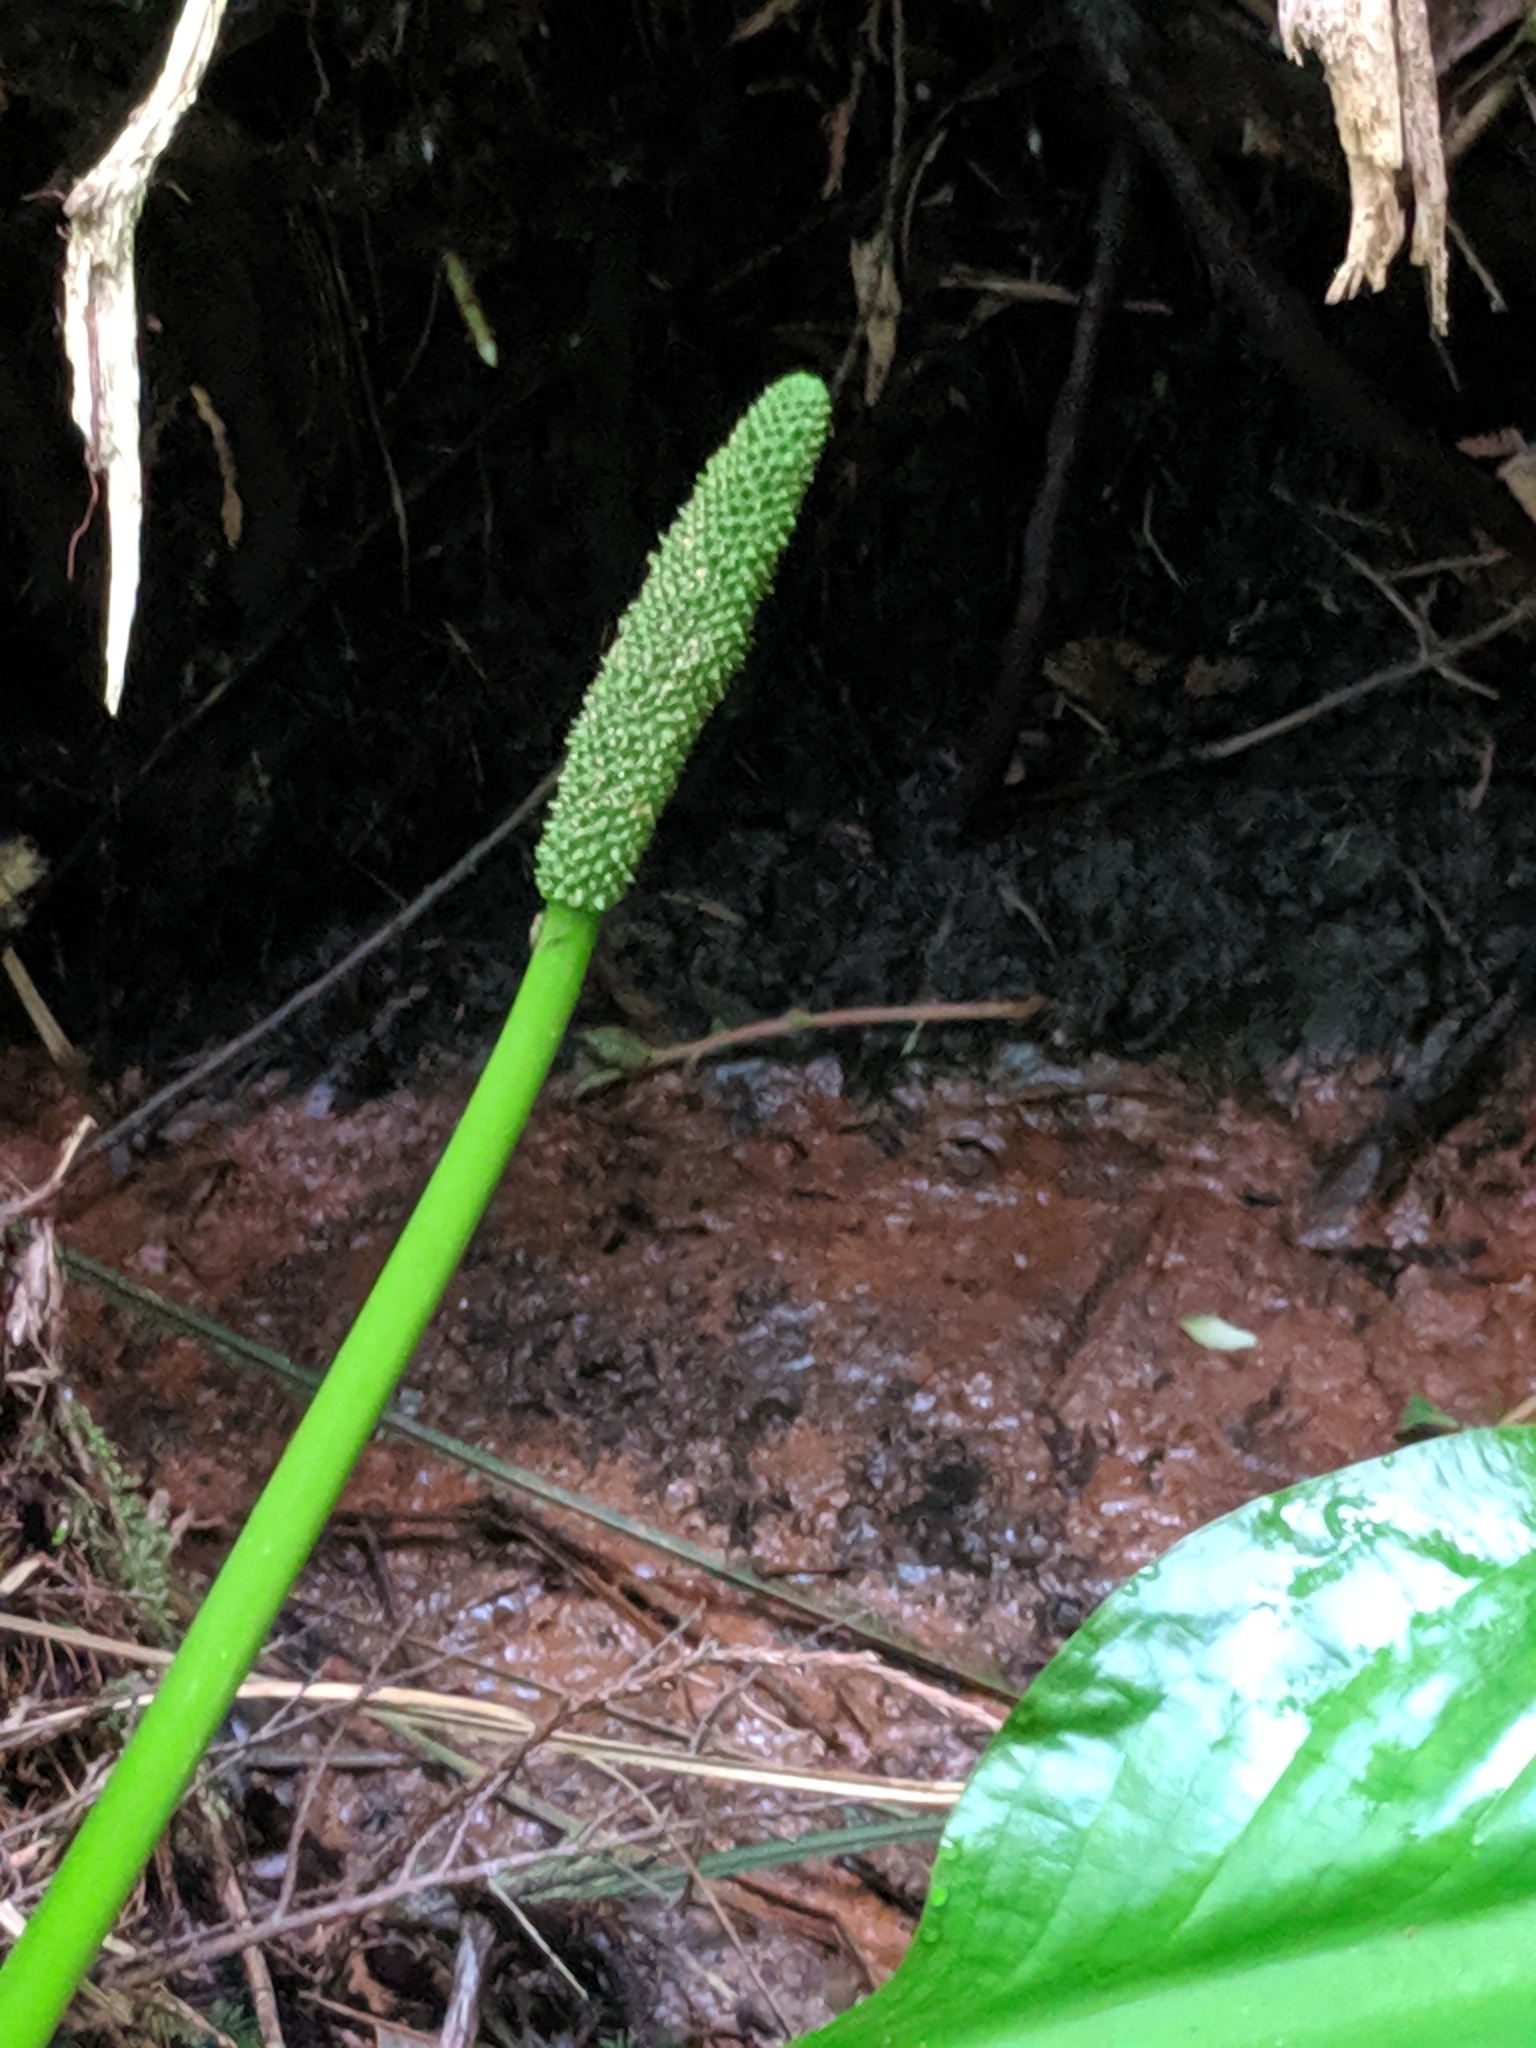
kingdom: Plantae
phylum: Tracheophyta
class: Liliopsida
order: Alismatales
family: Araceae
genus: Lysichiton
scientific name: Lysichiton americanus
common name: American skunk cabbage
